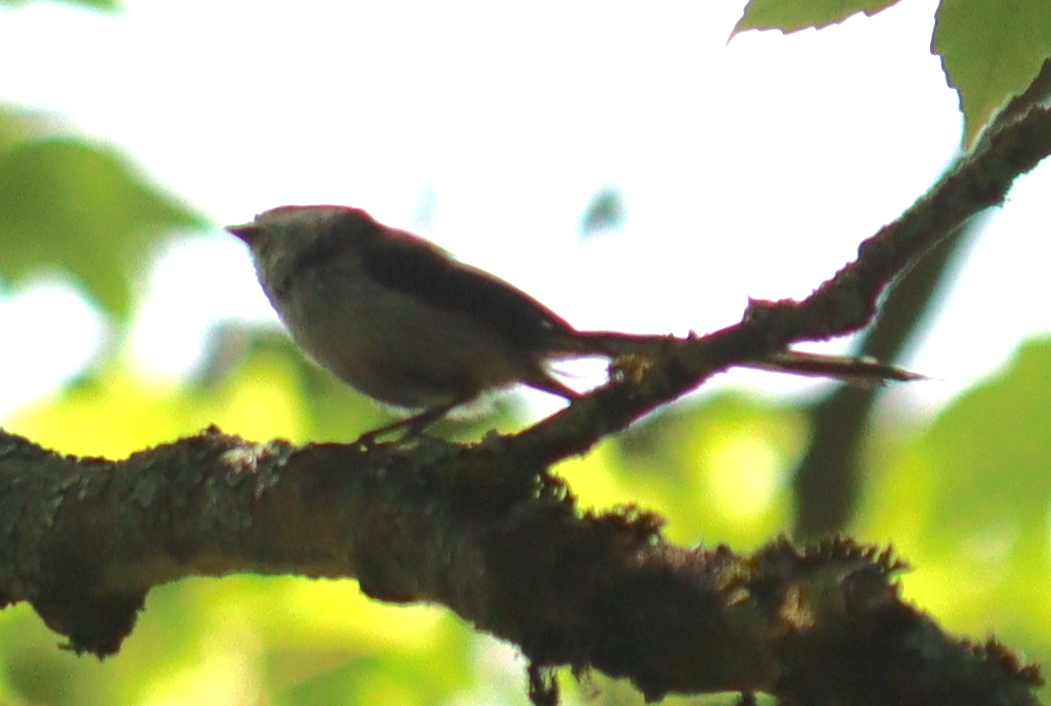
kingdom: Animalia
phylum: Chordata
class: Aves
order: Passeriformes
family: Aegithalidae
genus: Aegithalos
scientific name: Aegithalos caudatus
